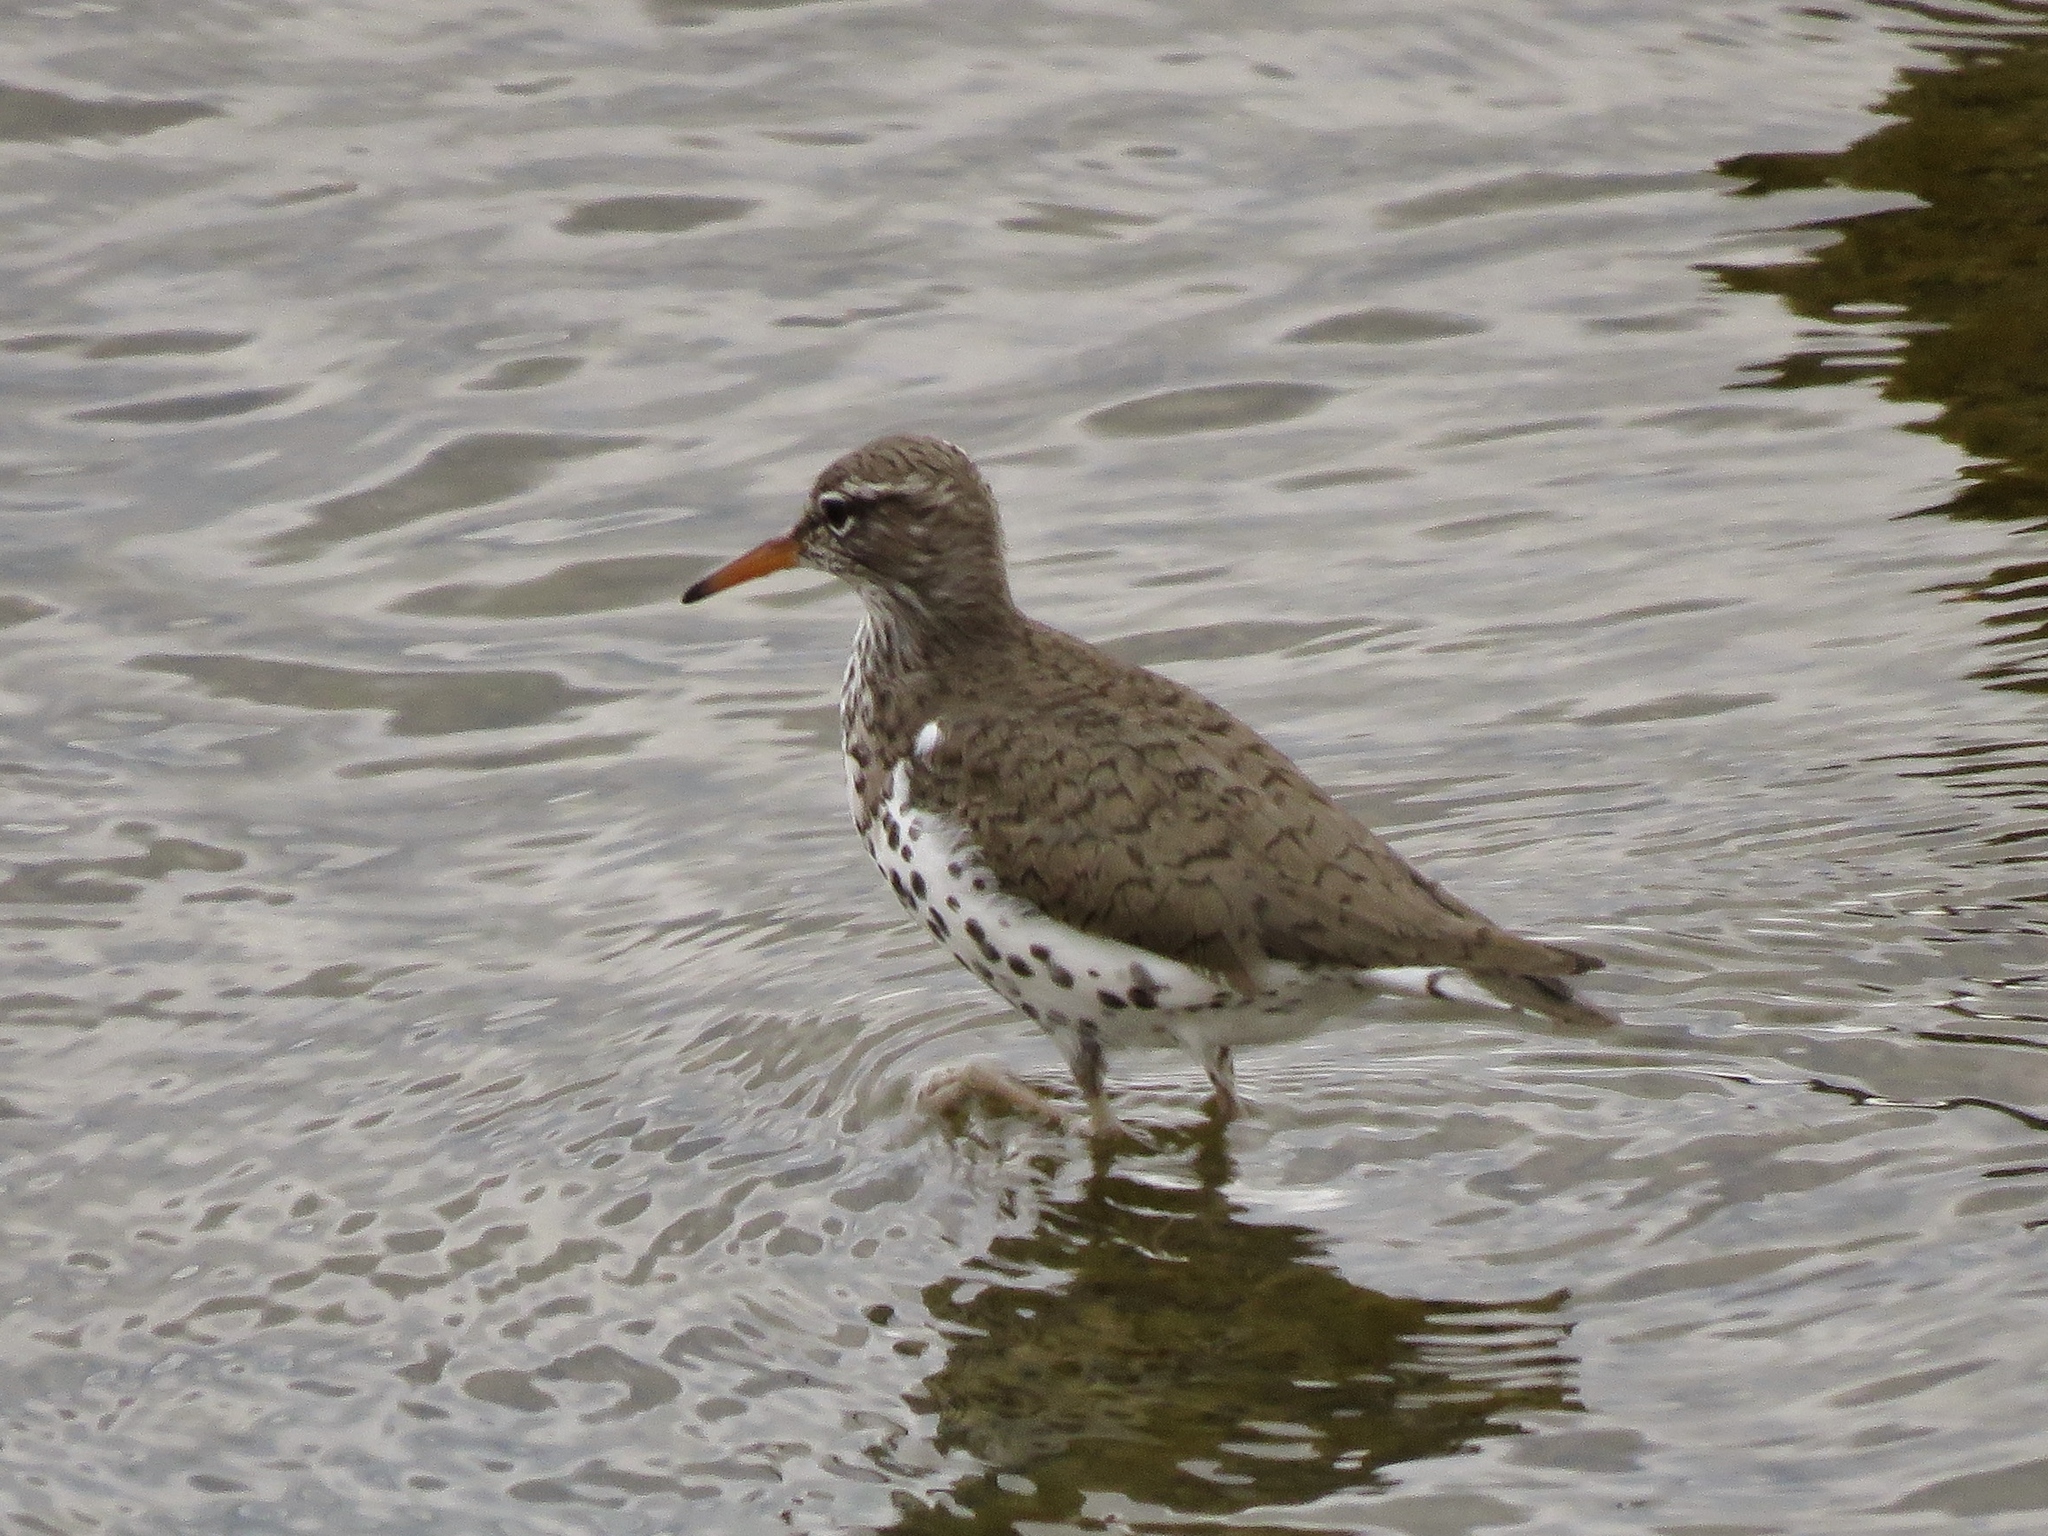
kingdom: Animalia
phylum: Chordata
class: Aves
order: Charadriiformes
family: Scolopacidae
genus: Actitis
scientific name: Actitis macularius
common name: Spotted sandpiper
